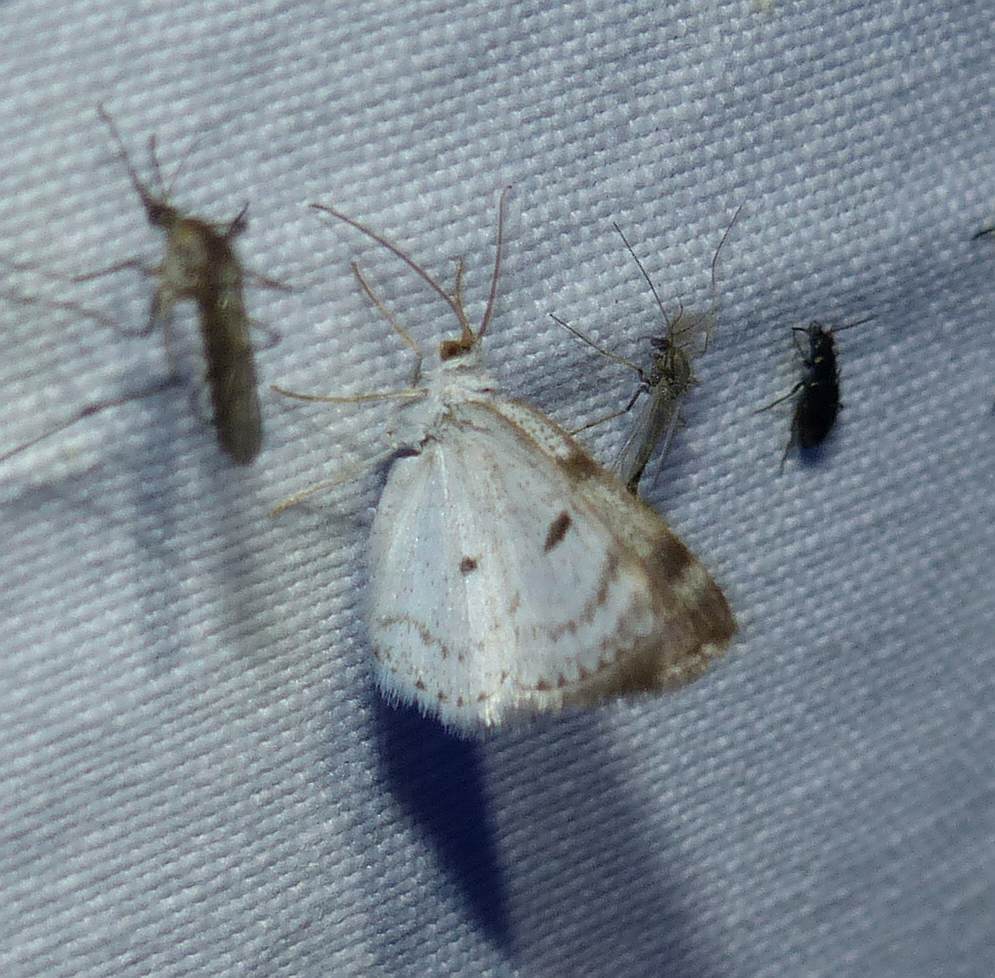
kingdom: Animalia
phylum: Arthropoda
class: Insecta
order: Lepidoptera
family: Geometridae
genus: Lomographa
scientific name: Lomographa semiclarata
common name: Bluish spring moth
